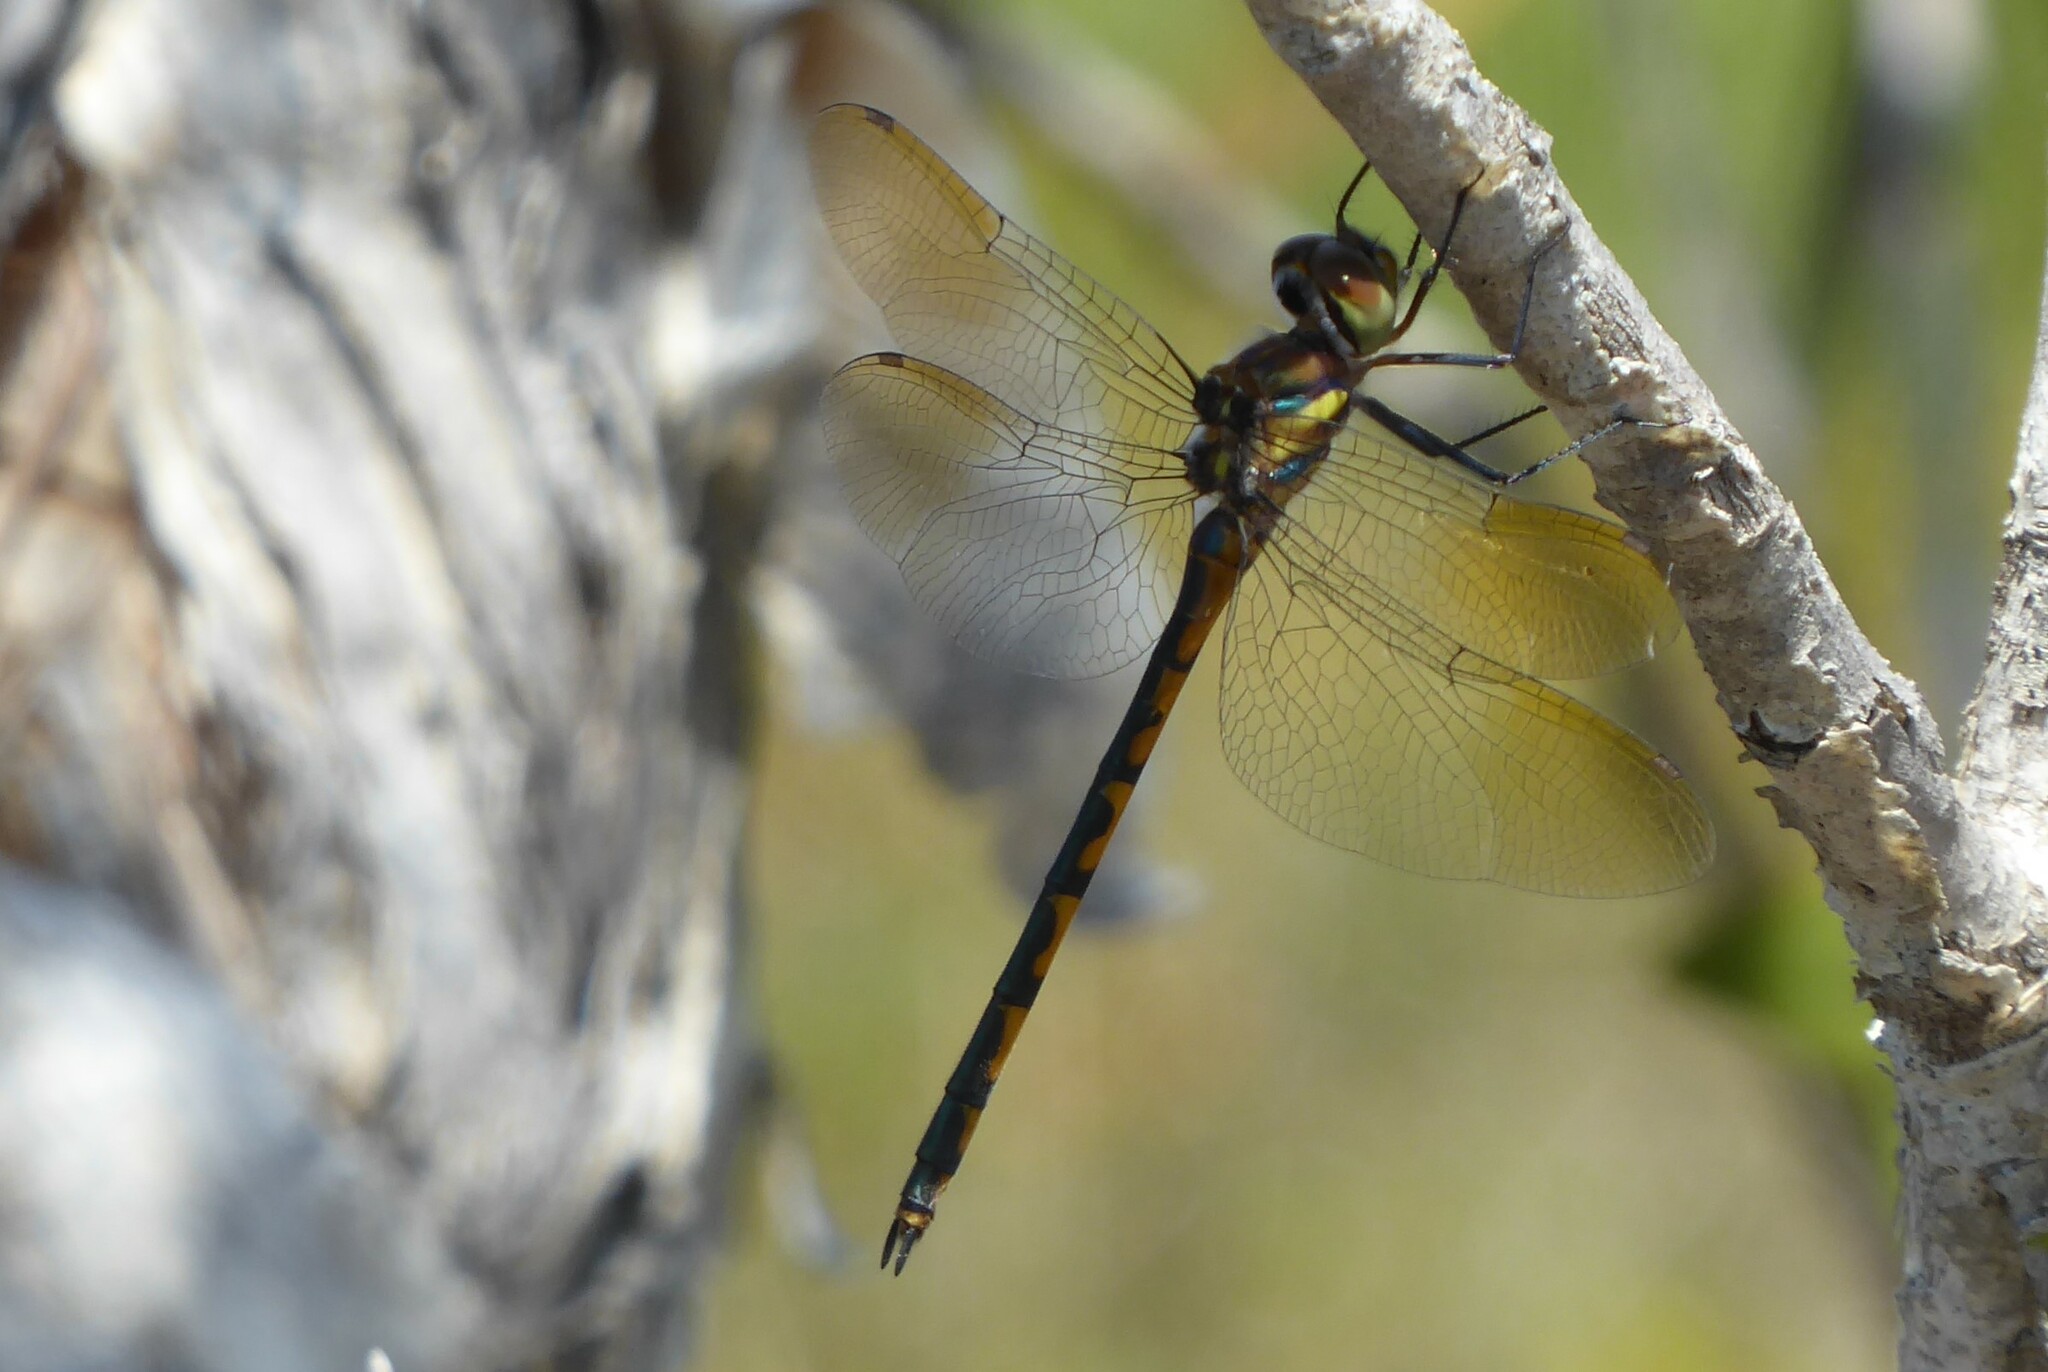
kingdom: Animalia
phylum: Arthropoda
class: Insecta
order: Odonata
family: Corduliidae
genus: Hemicordulia
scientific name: Hemicordulia australiae
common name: Sentry dragonfly
